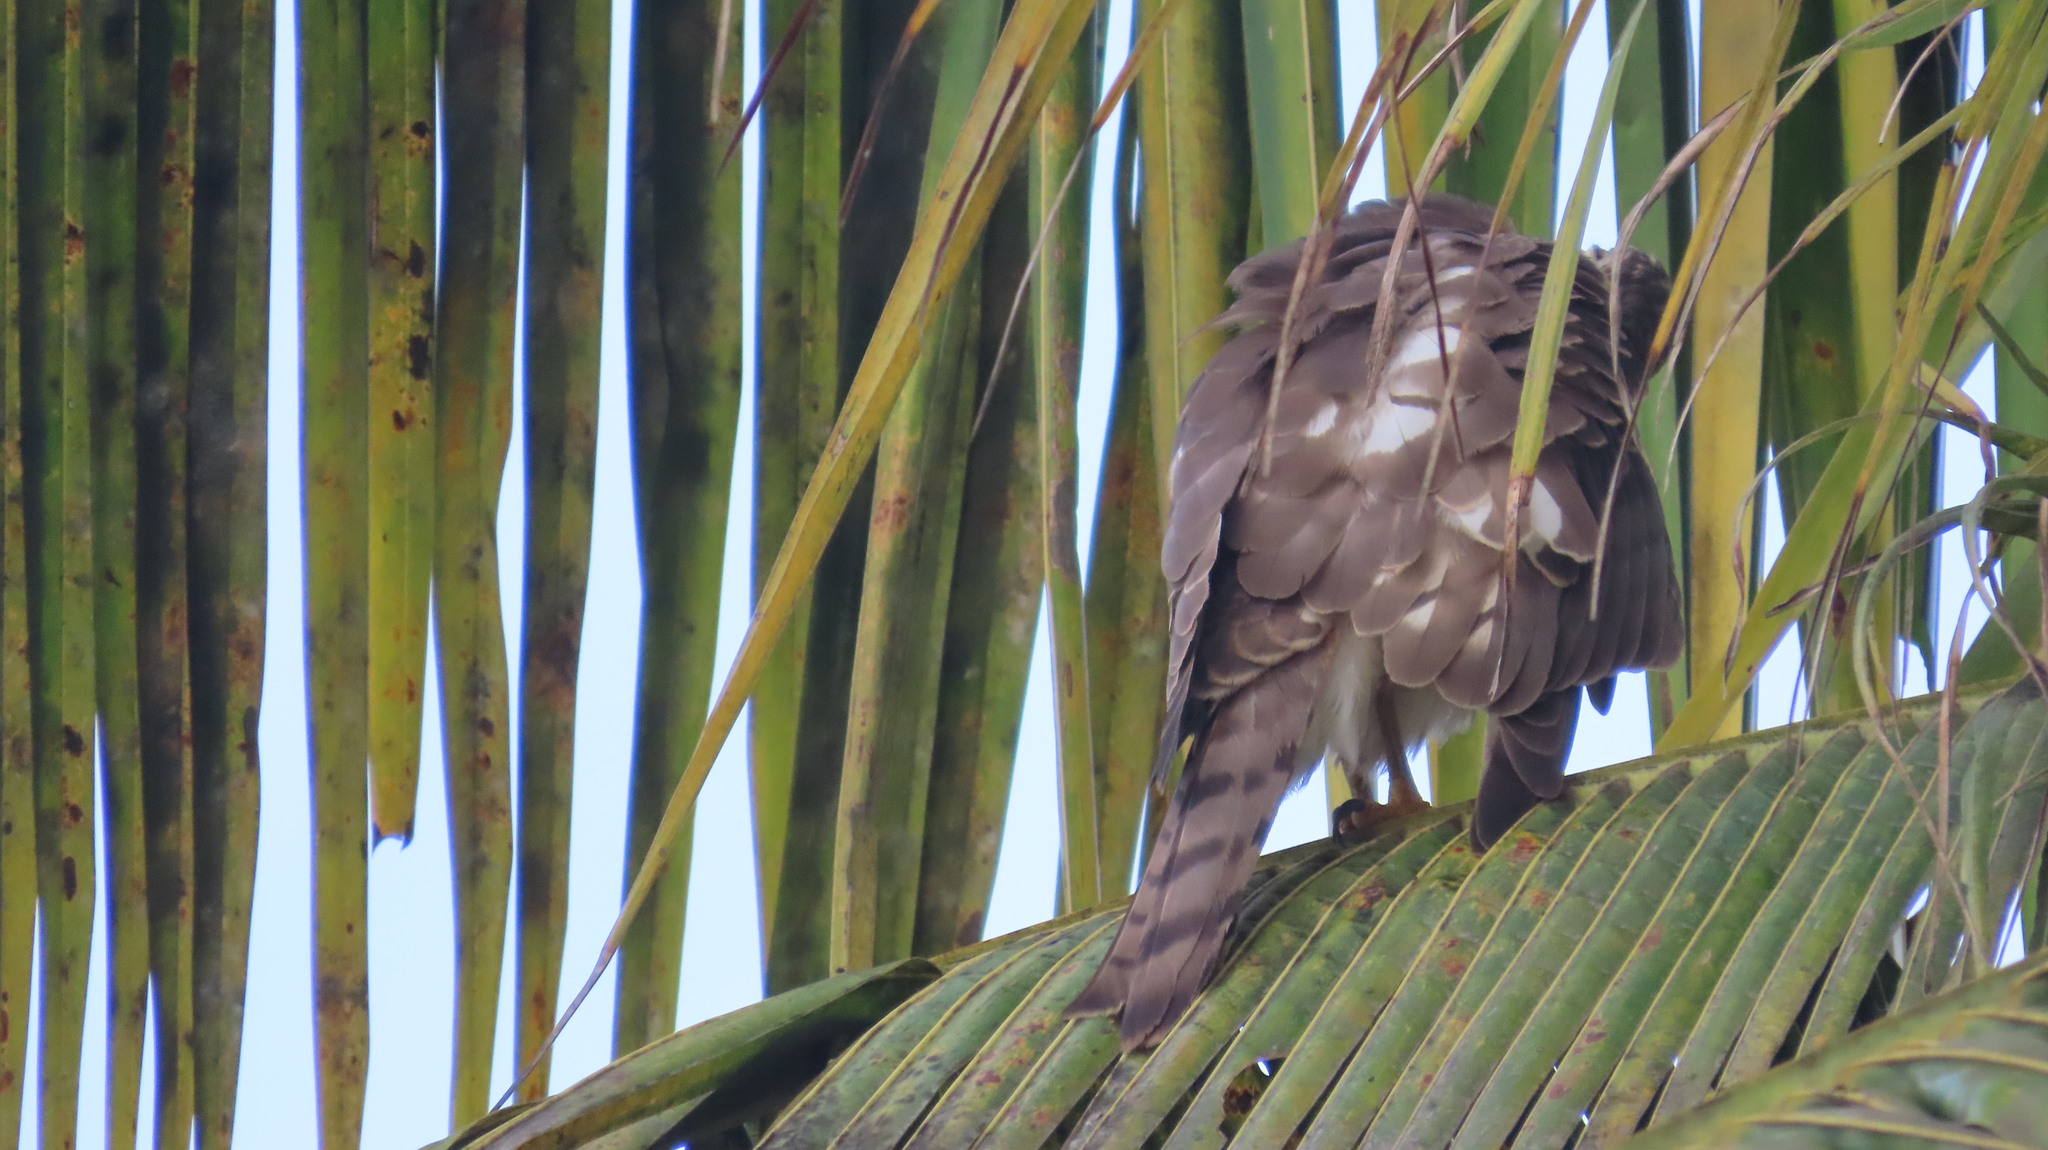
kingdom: Animalia
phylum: Chordata
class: Aves
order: Accipitriformes
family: Accipitridae
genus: Accipiter
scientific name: Accipiter badius
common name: Shikra
